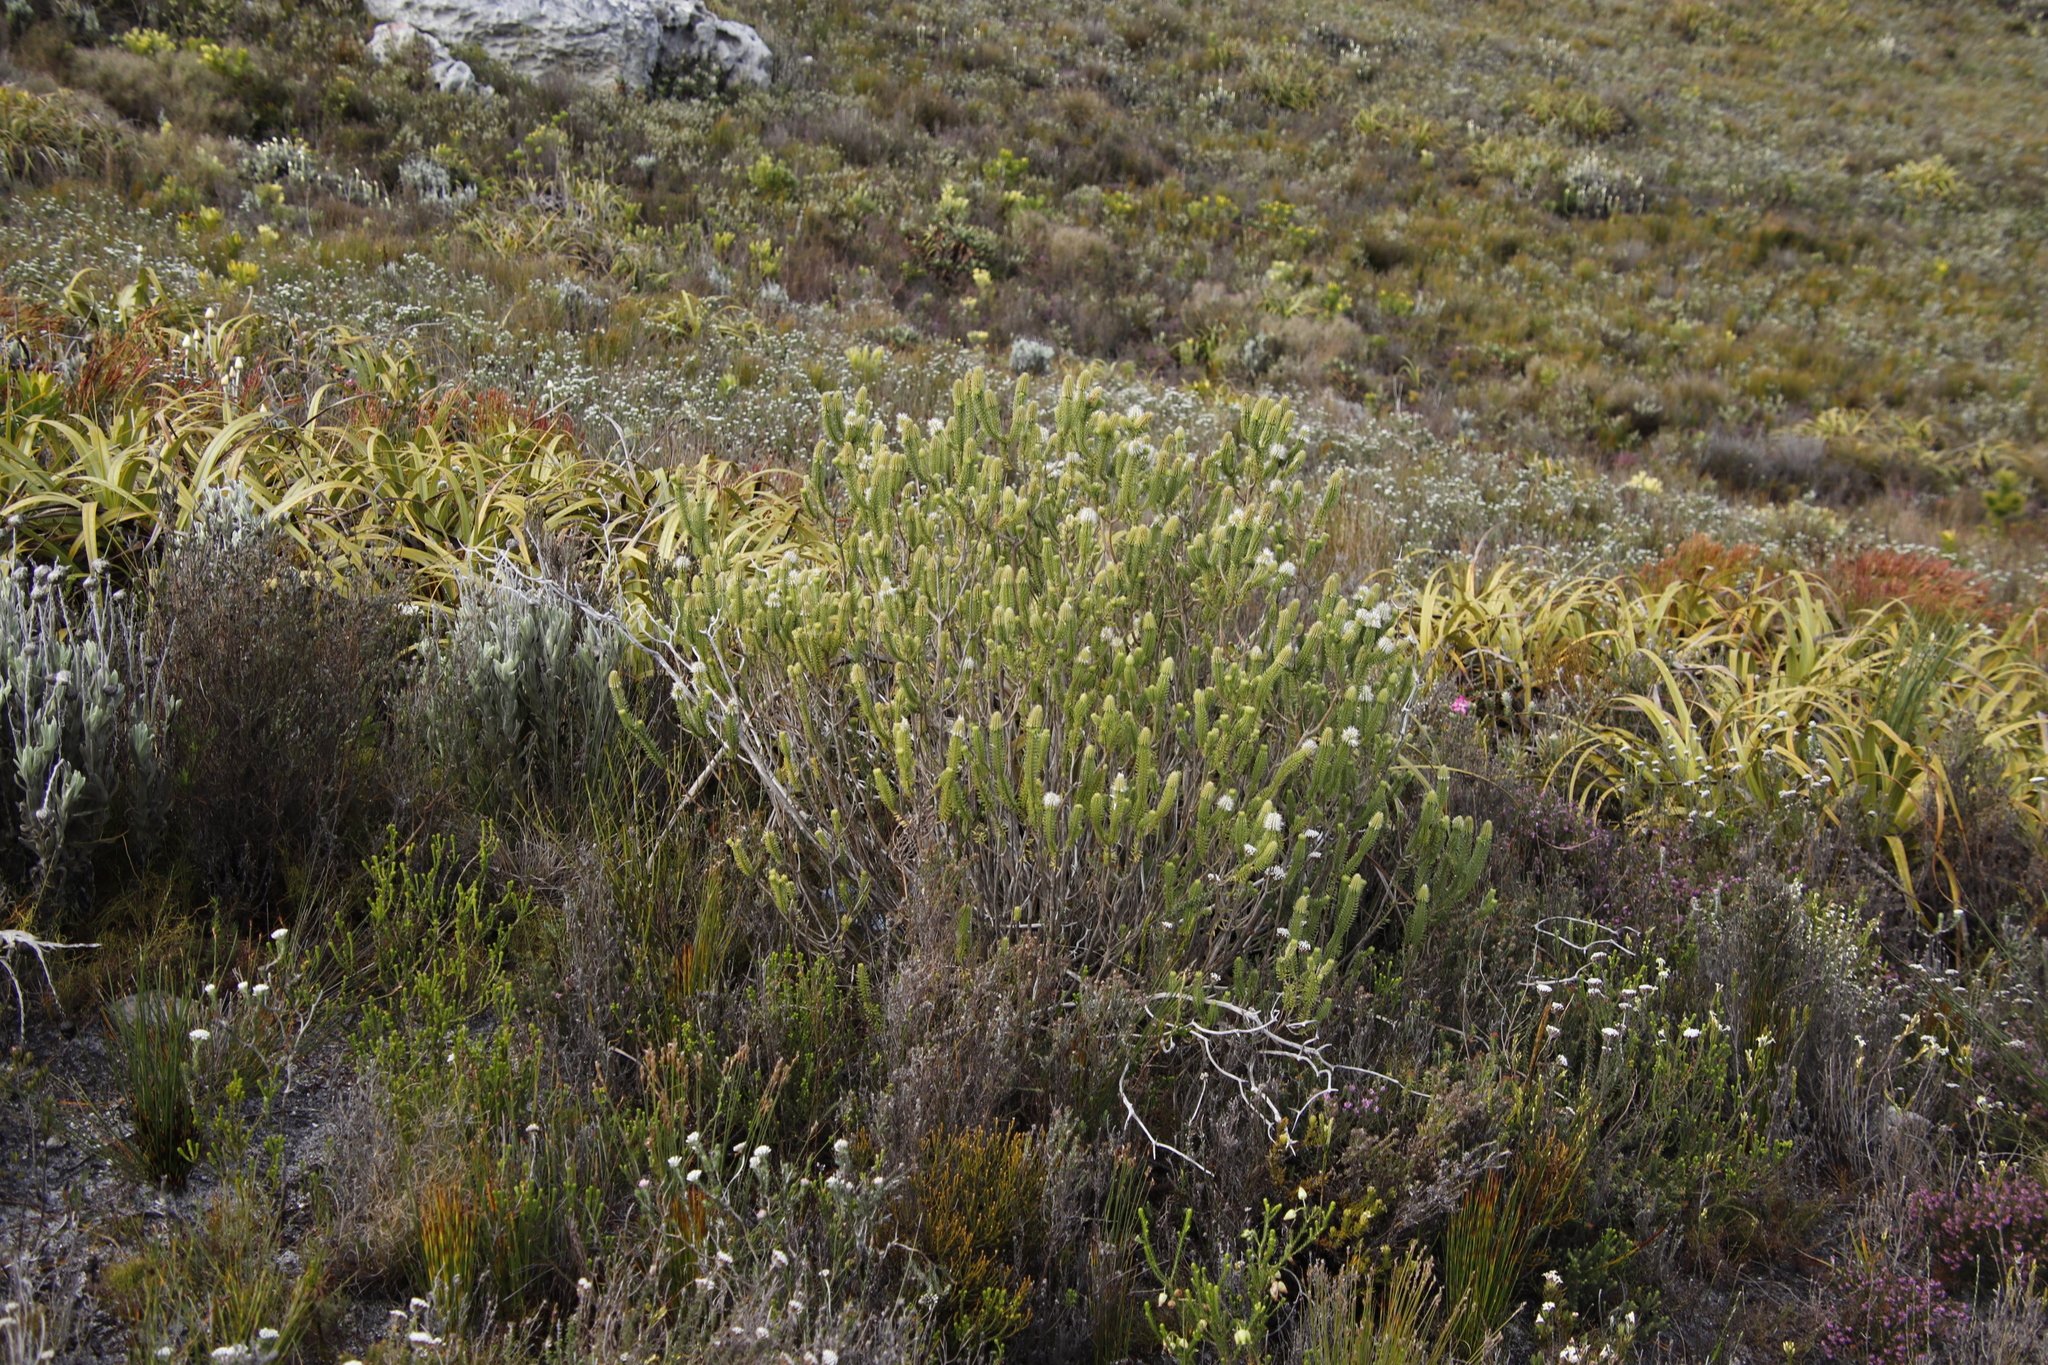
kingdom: Plantae
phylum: Tracheophyta
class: Magnoliopsida
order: Lamiales
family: Stilbaceae
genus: Stilbe
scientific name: Stilbe vestita
